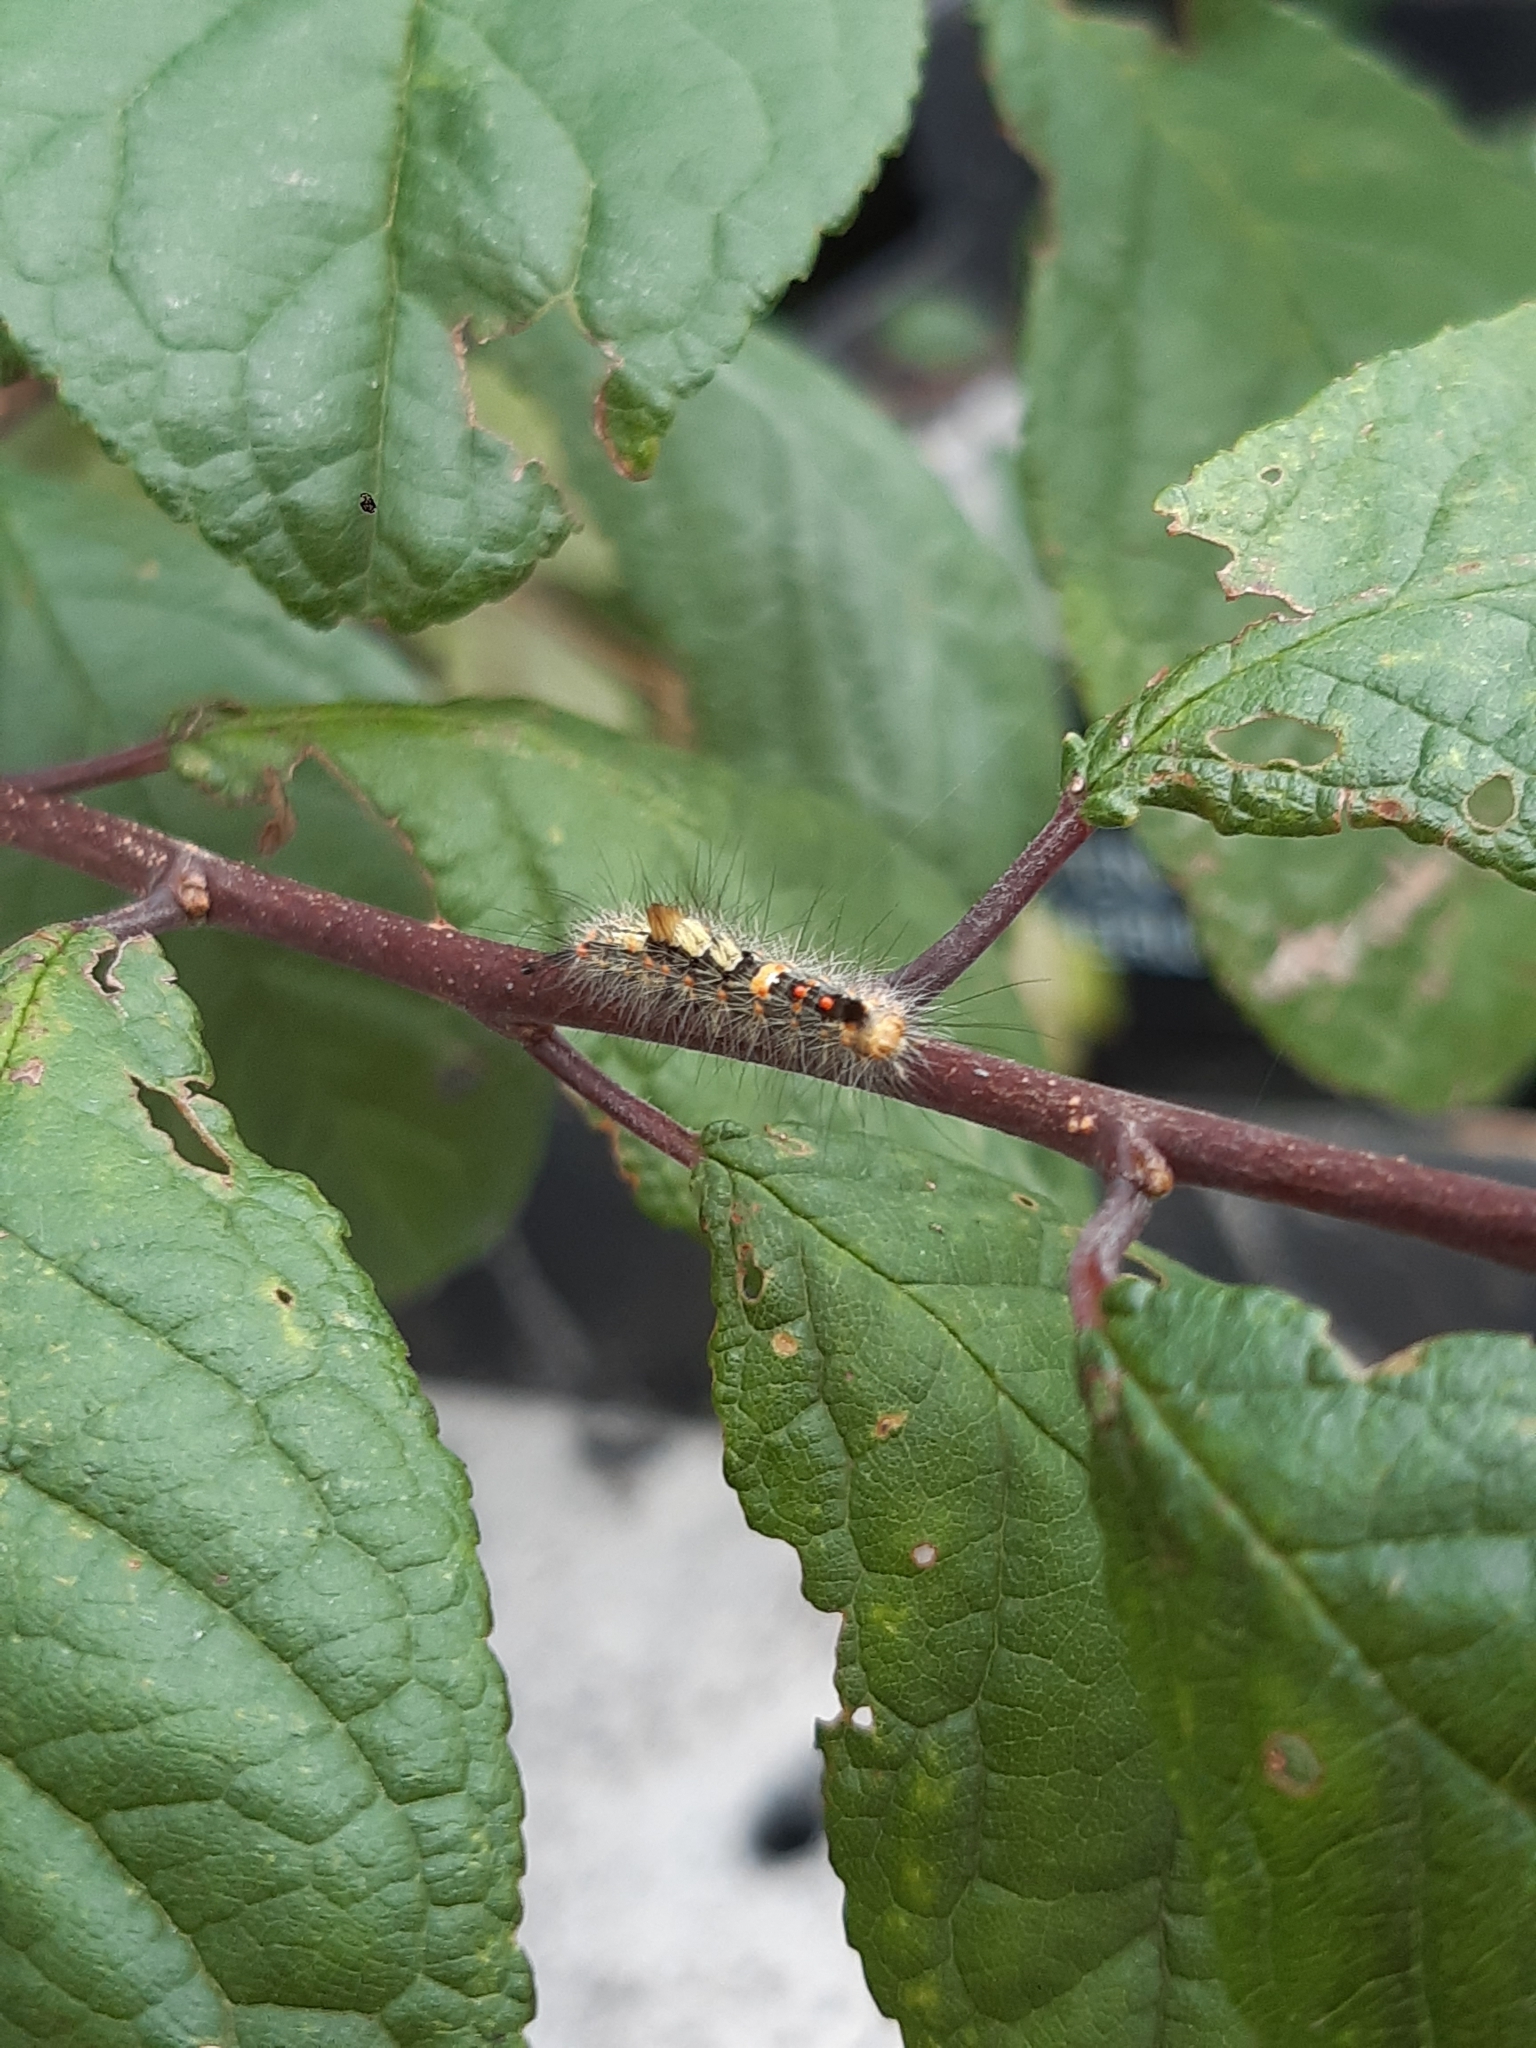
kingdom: Animalia
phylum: Arthropoda
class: Insecta
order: Lepidoptera
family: Erebidae
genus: Orgyia
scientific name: Orgyia antiqua
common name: Vapourer
